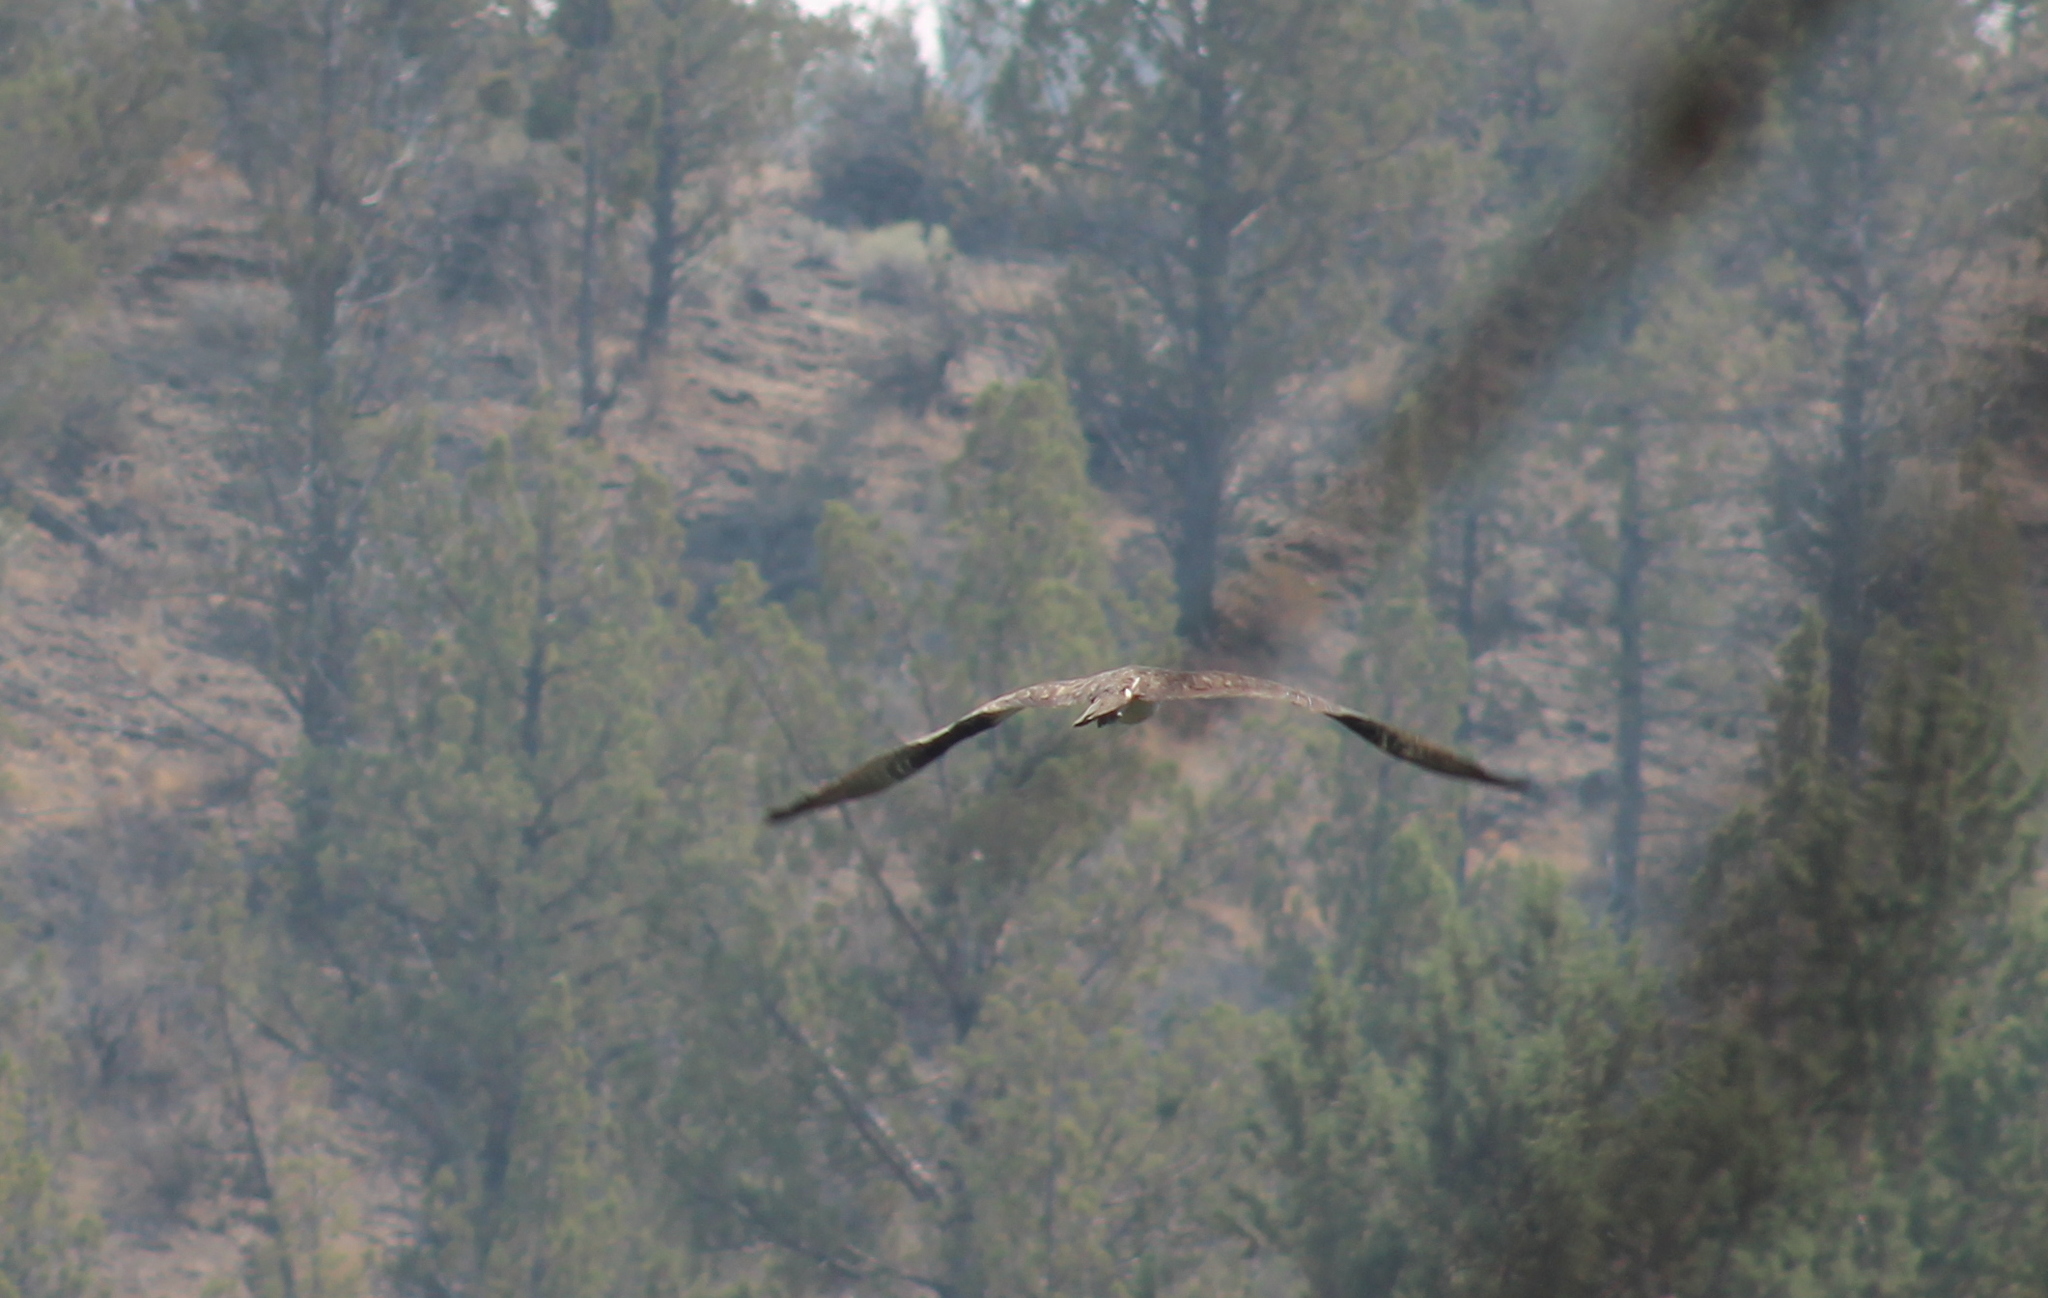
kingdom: Animalia
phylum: Chordata
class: Aves
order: Accipitriformes
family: Pandionidae
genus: Pandion
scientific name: Pandion haliaetus
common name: Osprey
